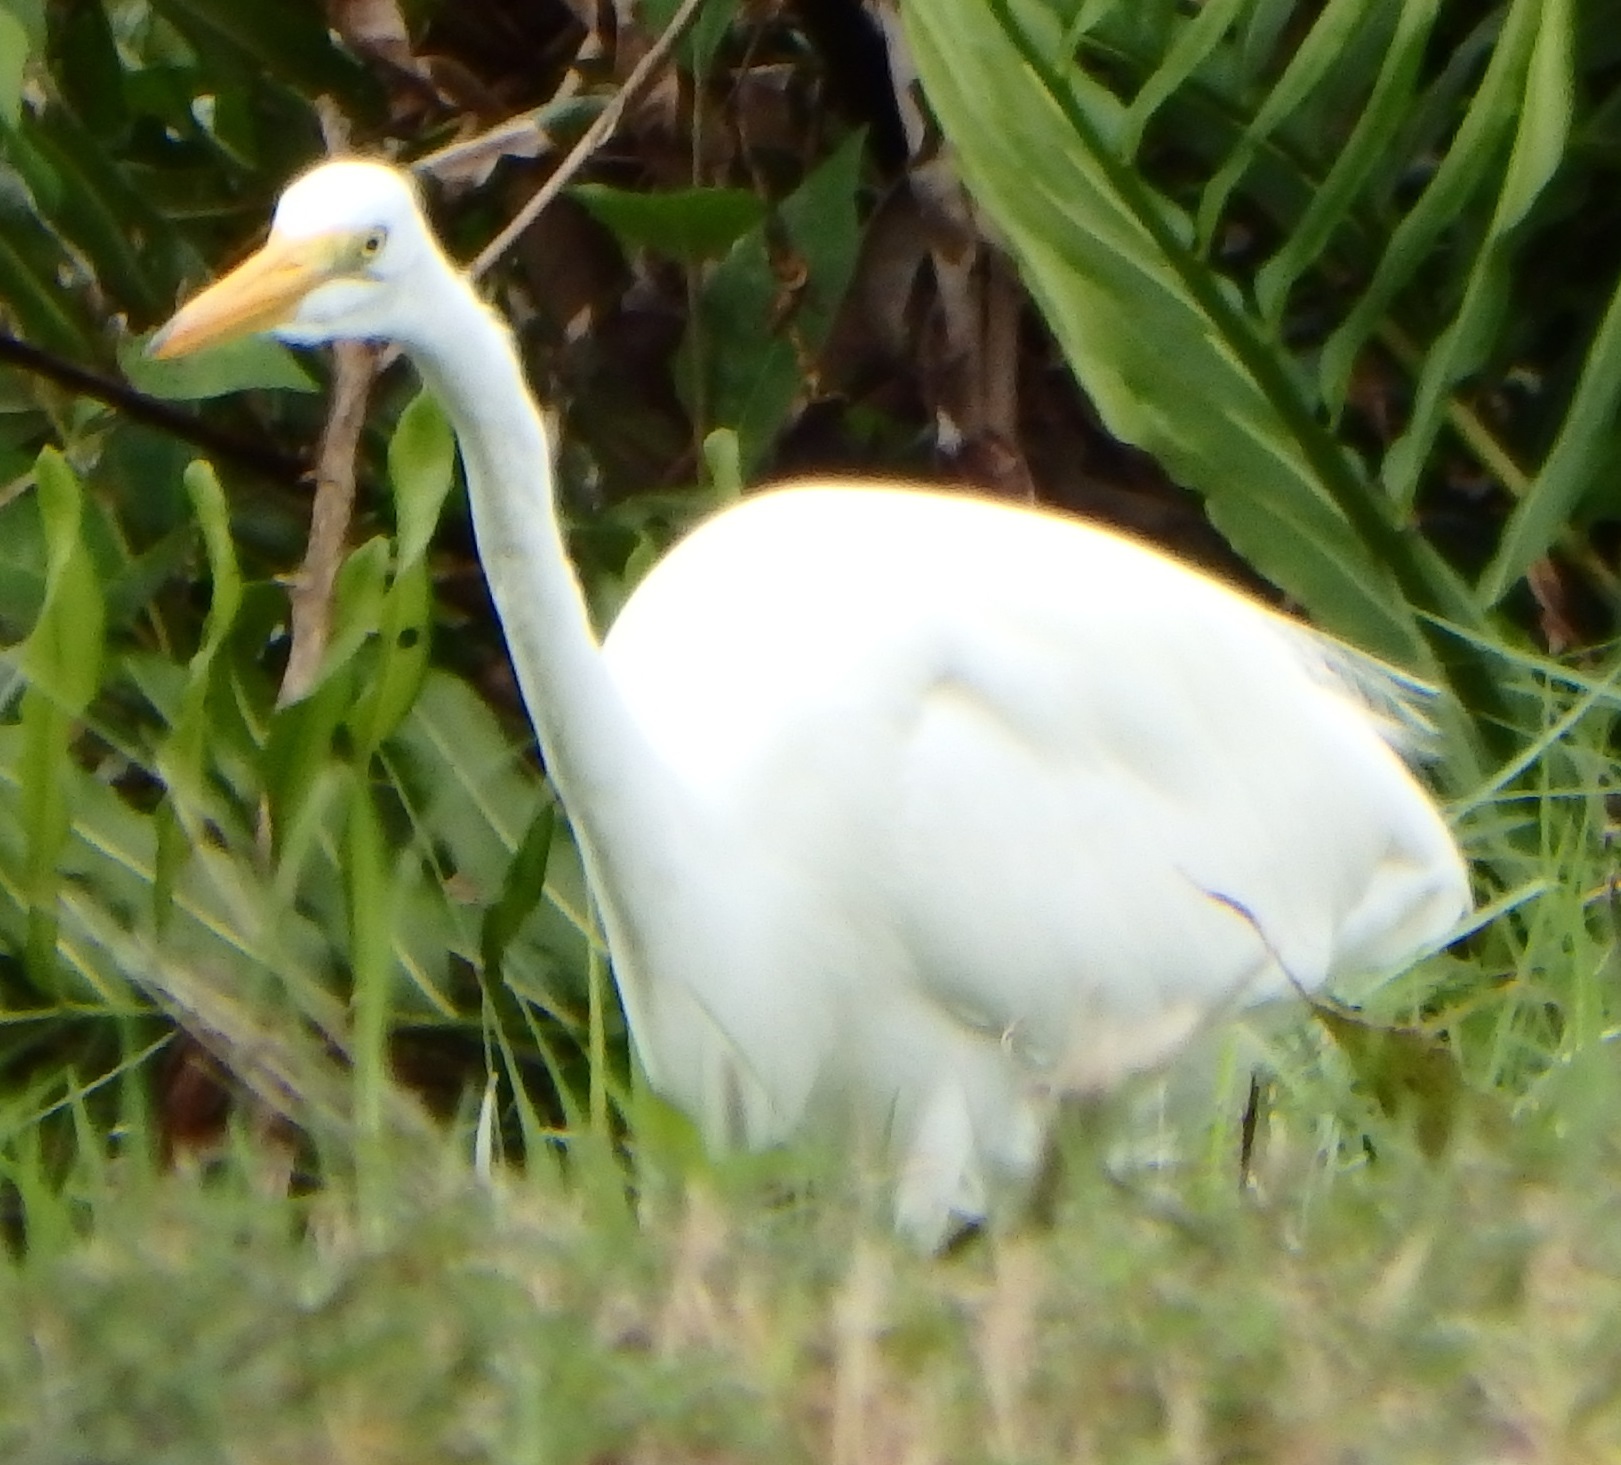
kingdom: Animalia
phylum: Chordata
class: Aves
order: Pelecaniformes
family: Ardeidae
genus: Ardea
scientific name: Ardea alba
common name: Great egret
